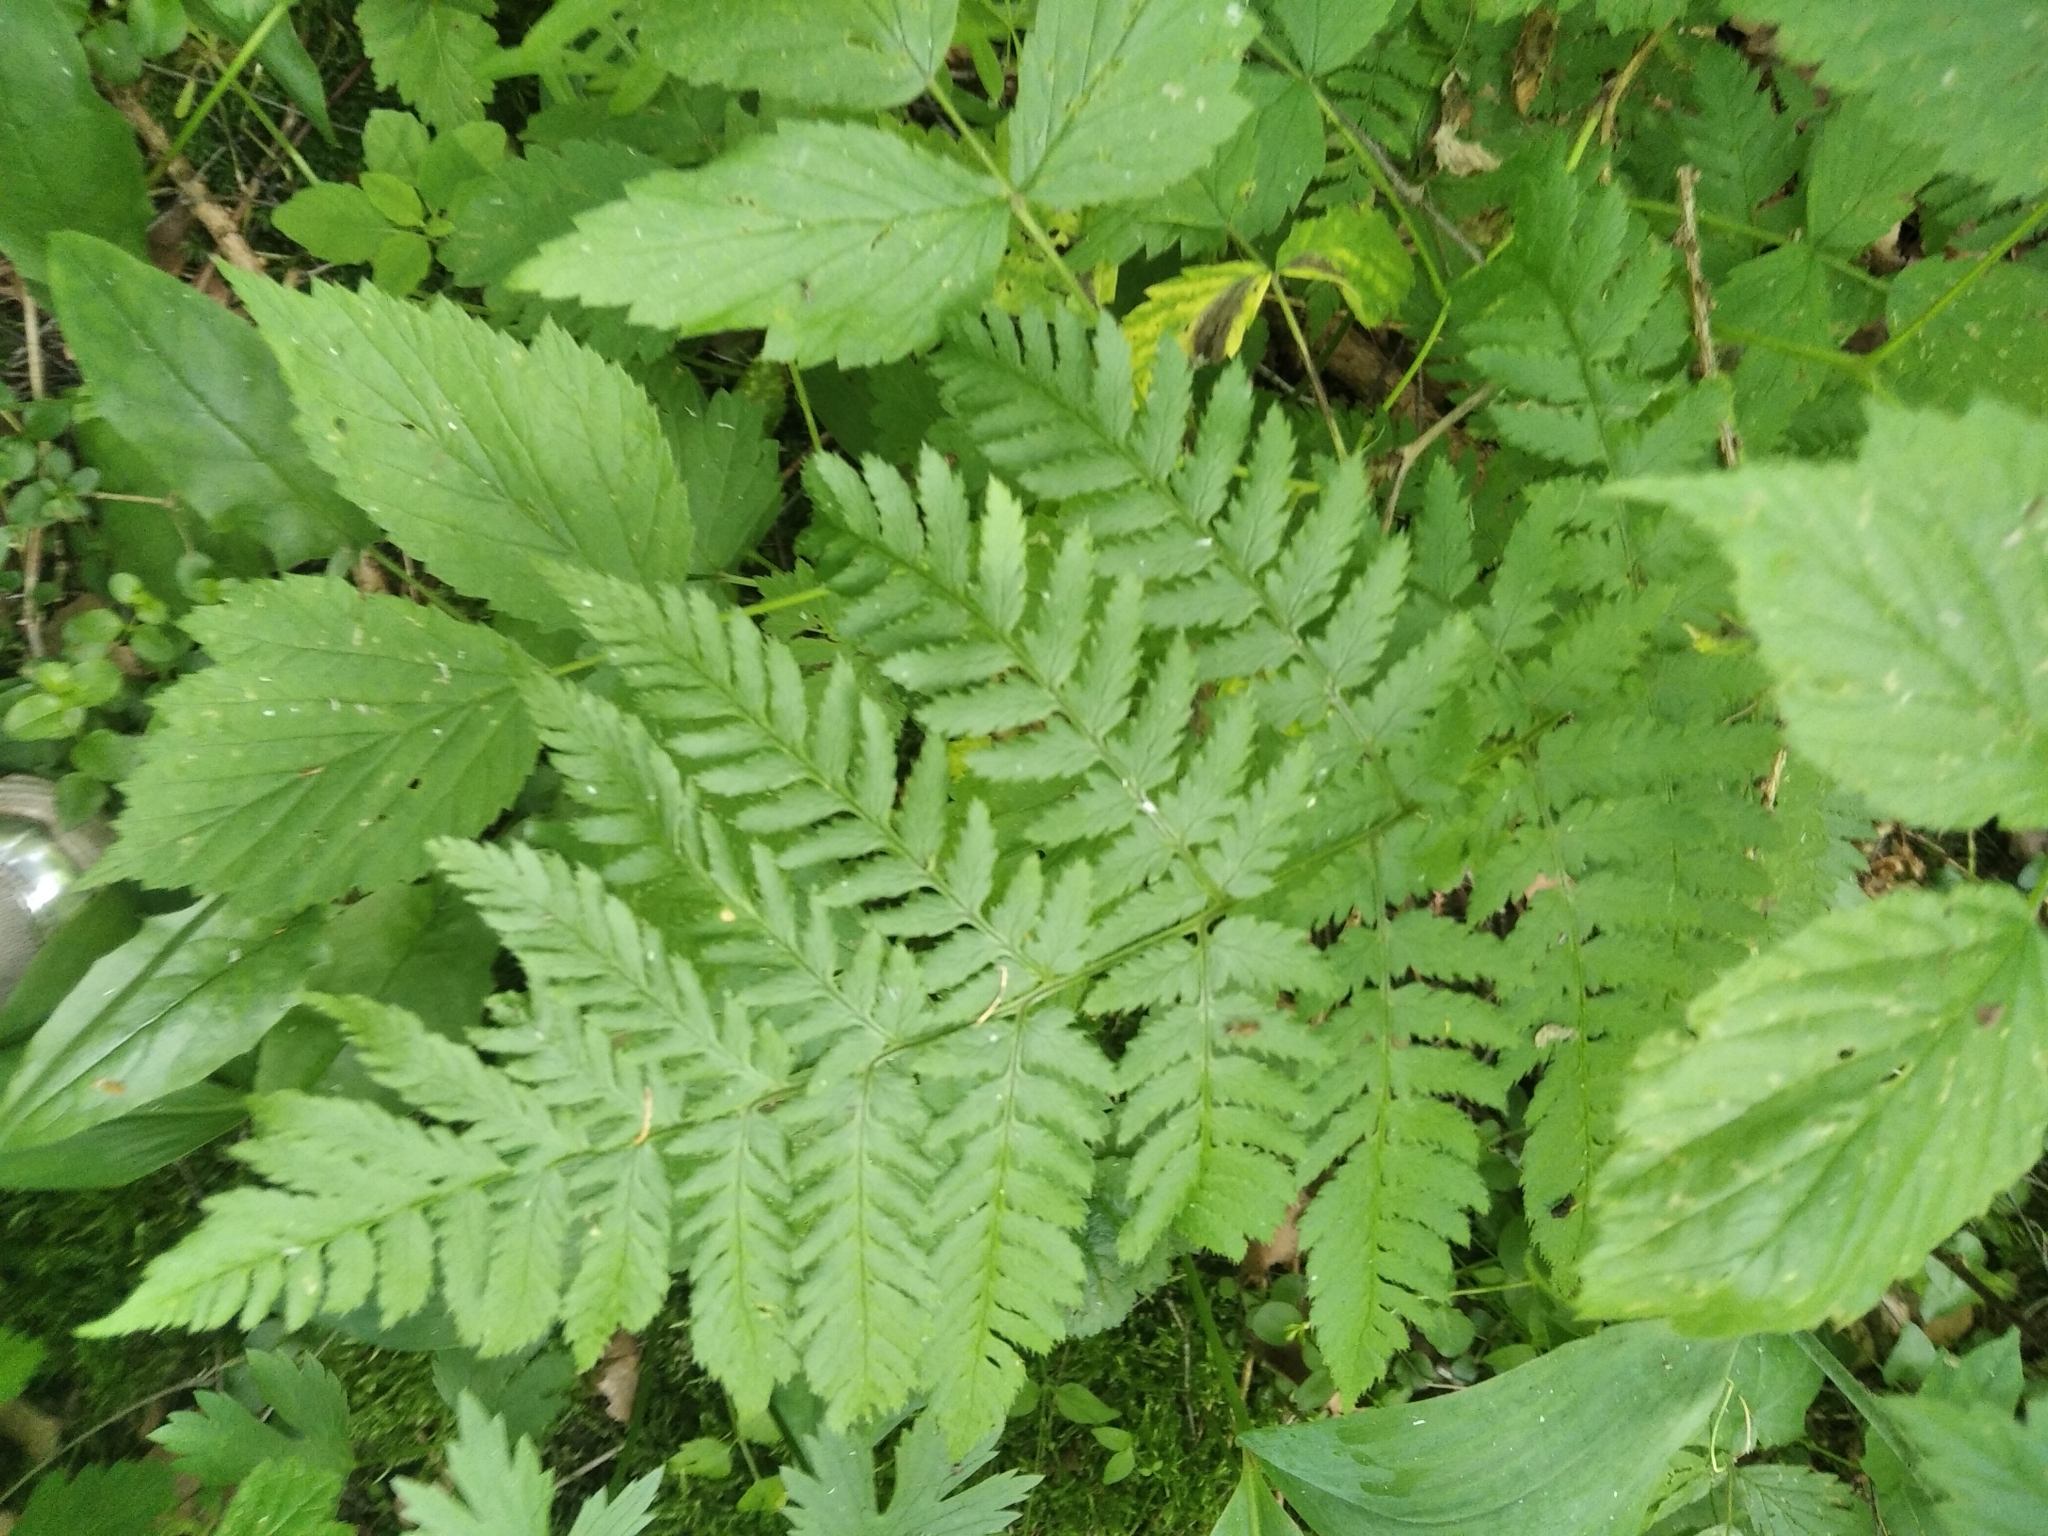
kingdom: Plantae
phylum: Tracheophyta
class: Polypodiopsida
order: Polypodiales
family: Dryopteridaceae
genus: Dryopteris
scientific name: Dryopteris carthusiana
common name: Narrow buckler-fern
